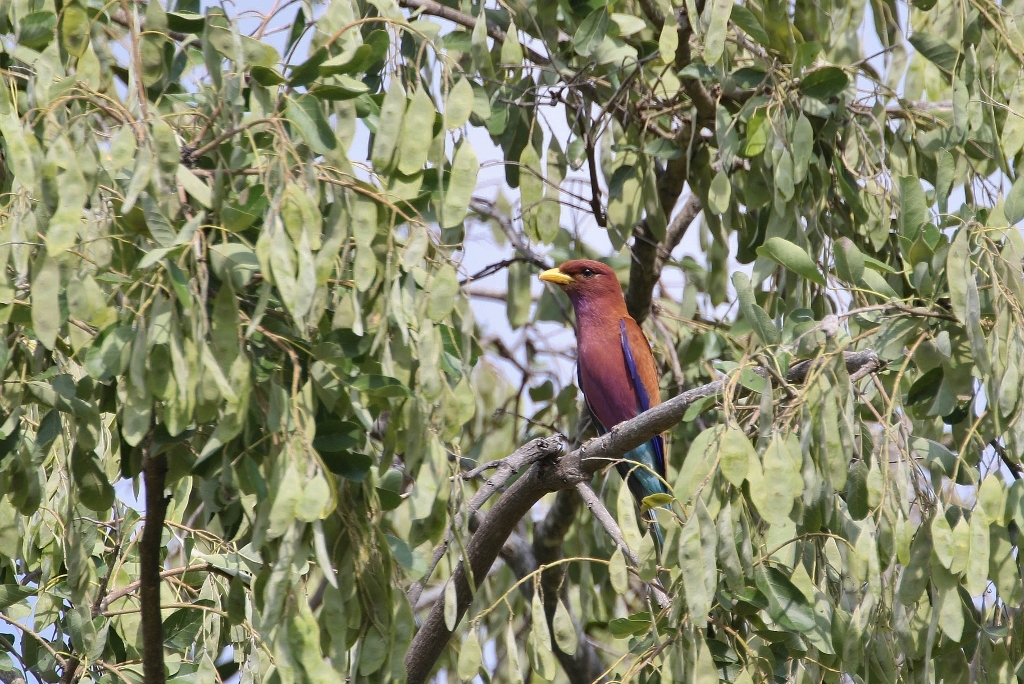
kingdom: Animalia
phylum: Chordata
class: Aves
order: Coraciiformes
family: Coraciidae
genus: Eurystomus
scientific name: Eurystomus glaucurus
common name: Broad-billed roller
